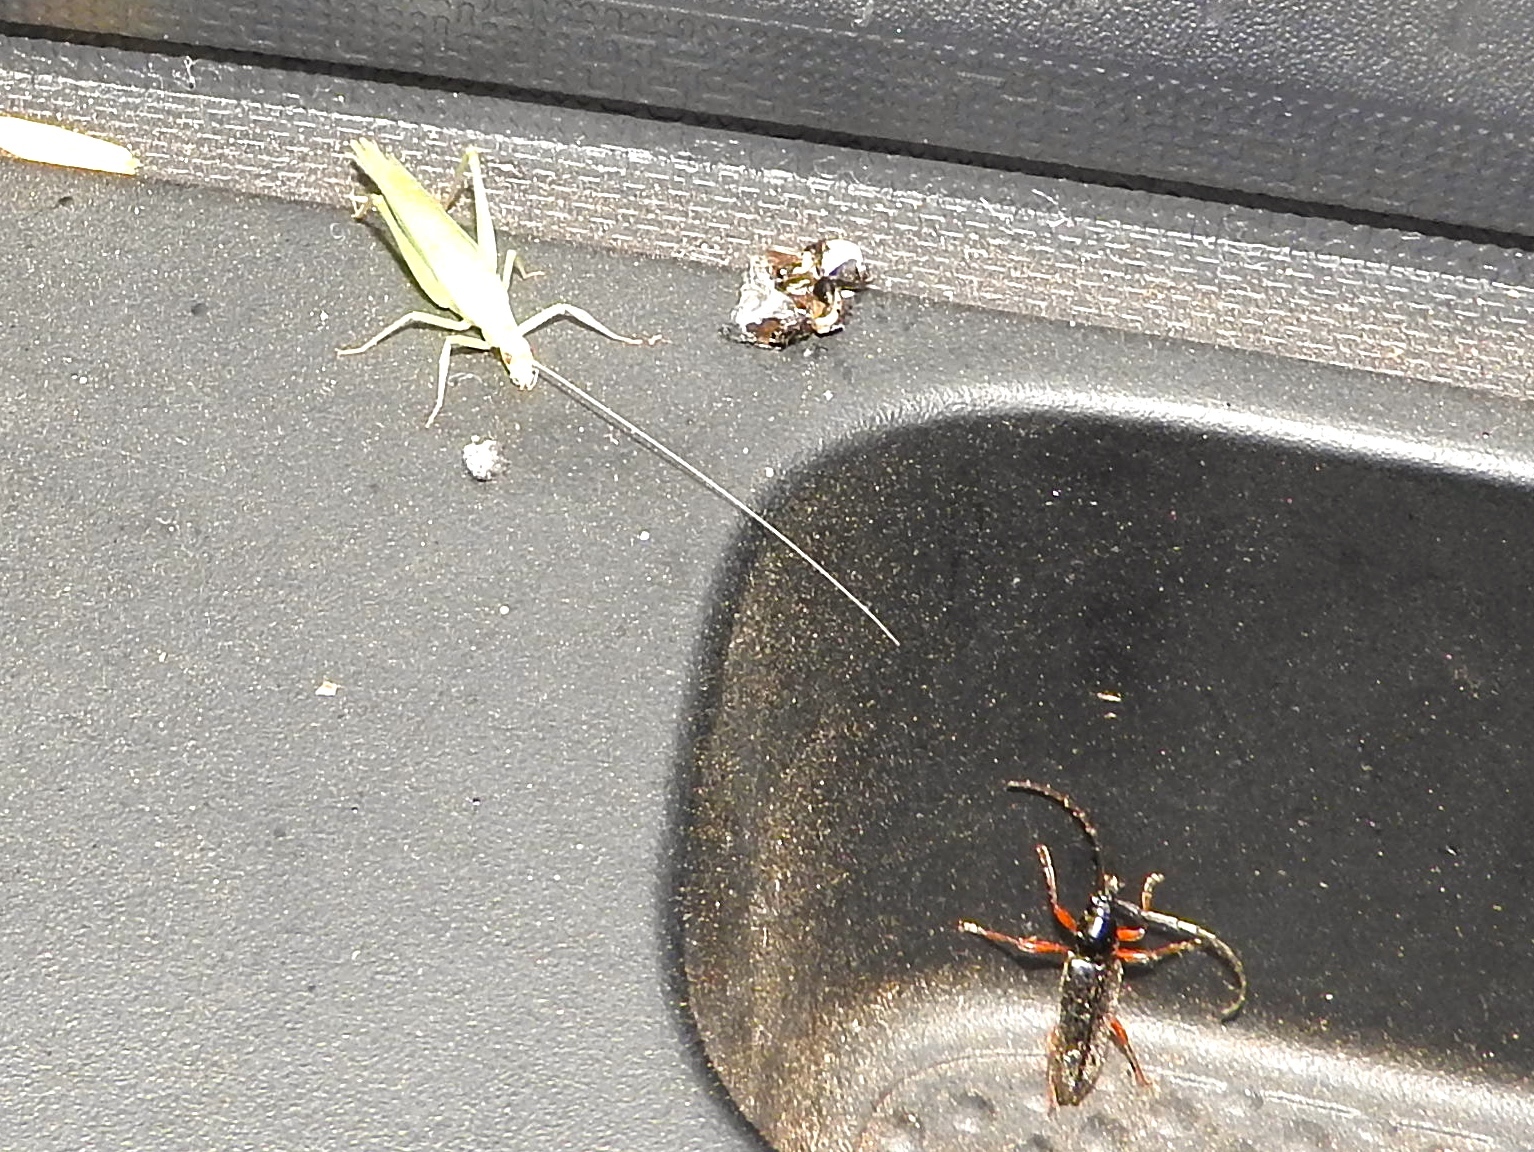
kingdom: Animalia
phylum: Arthropoda
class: Insecta
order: Orthoptera
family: Gryllidae
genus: Oecanthus
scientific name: Oecanthus
